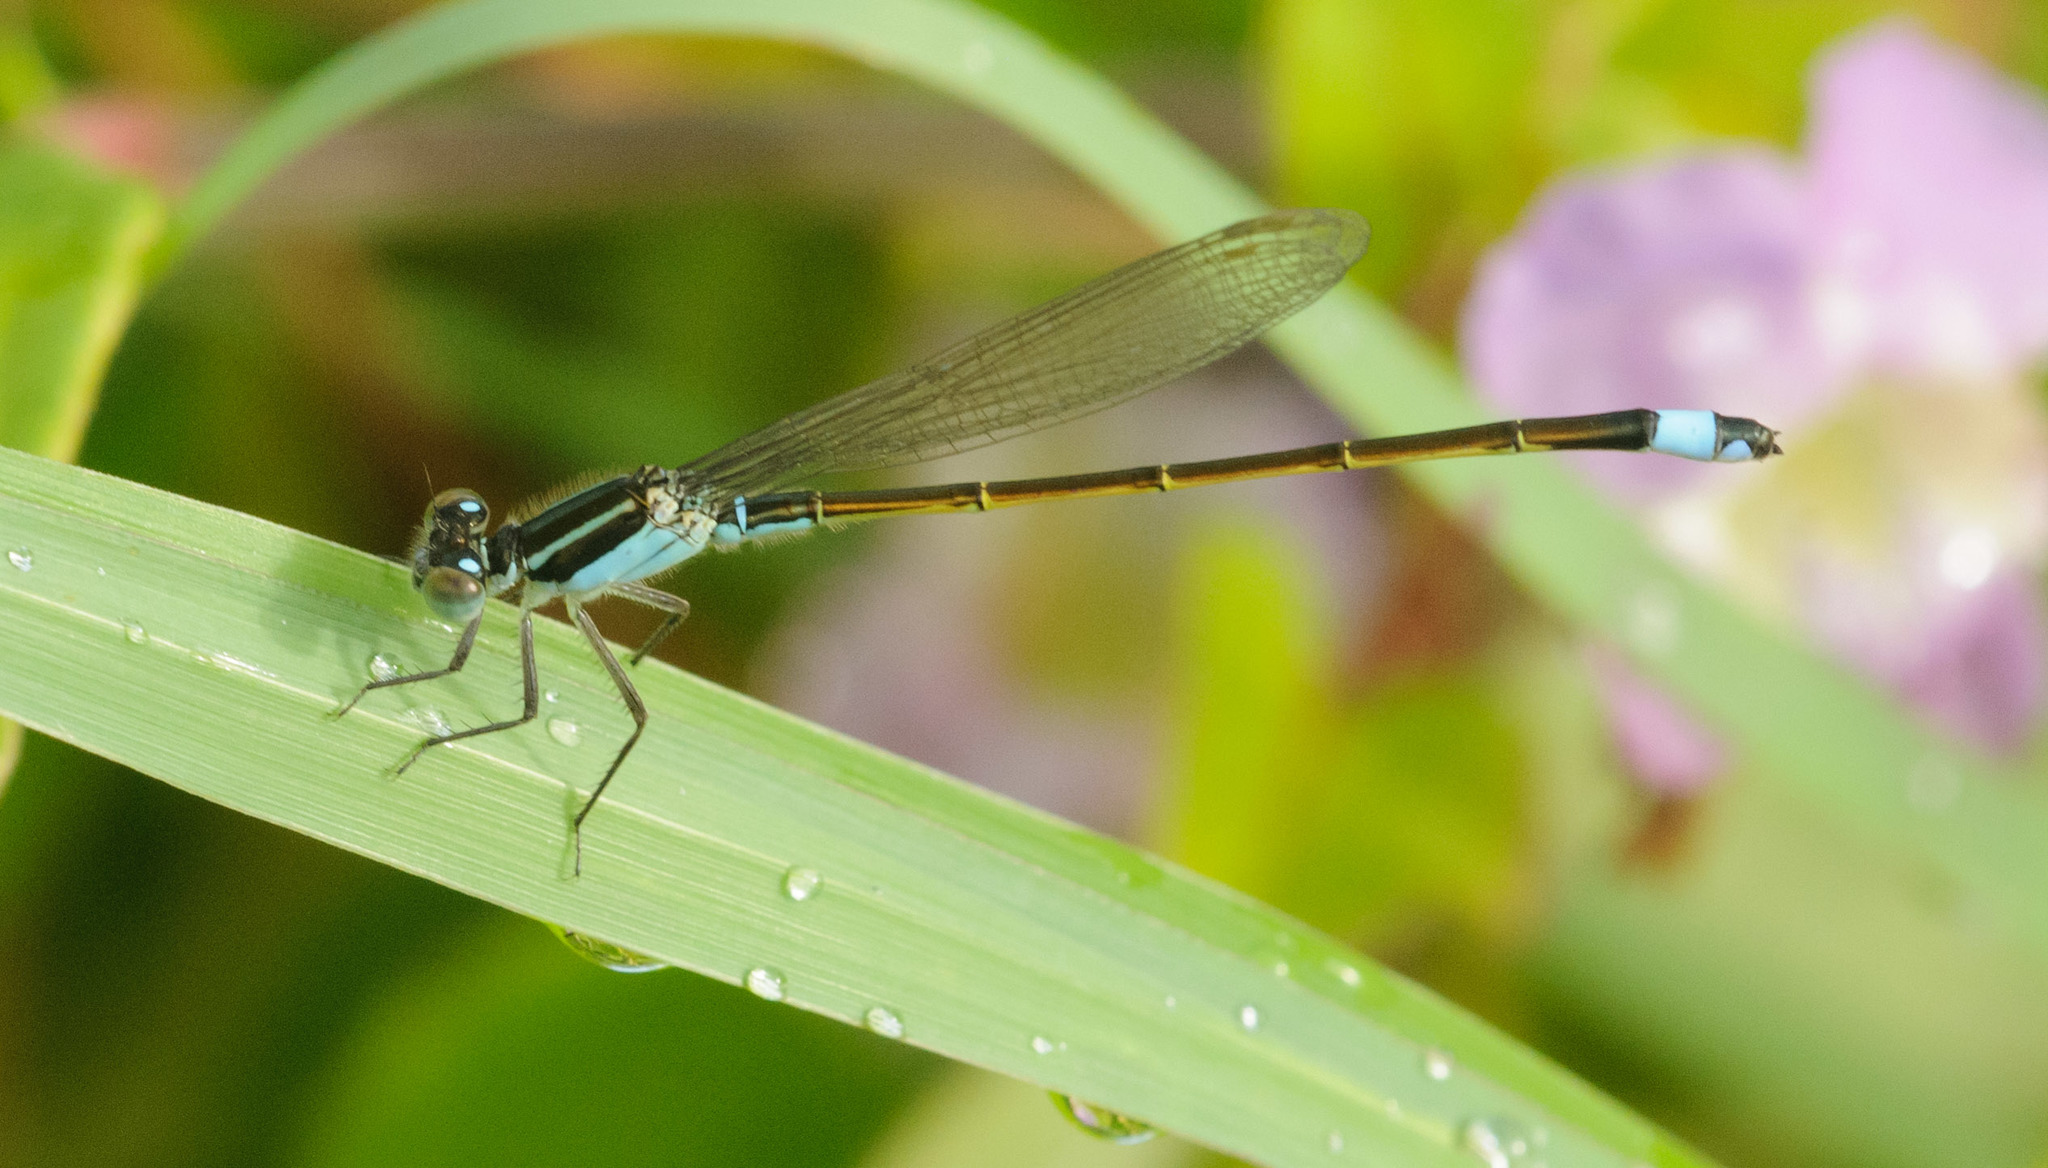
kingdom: Animalia
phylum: Arthropoda
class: Insecta
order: Odonata
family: Coenagrionidae
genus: Ischnura
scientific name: Ischnura ramburii
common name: Rambur's forktail
